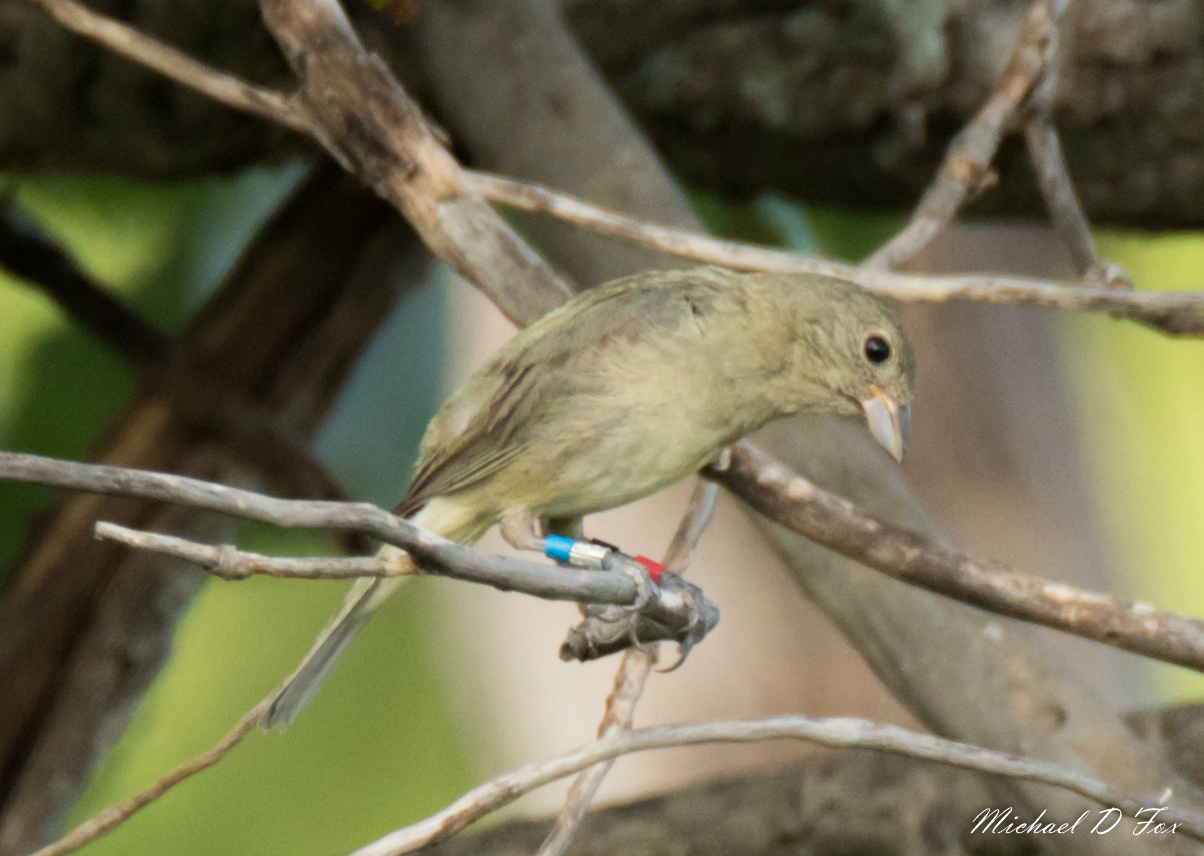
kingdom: Animalia
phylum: Chordata
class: Aves
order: Passeriformes
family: Cardinalidae
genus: Passerina
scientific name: Passerina ciris
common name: Painted bunting
